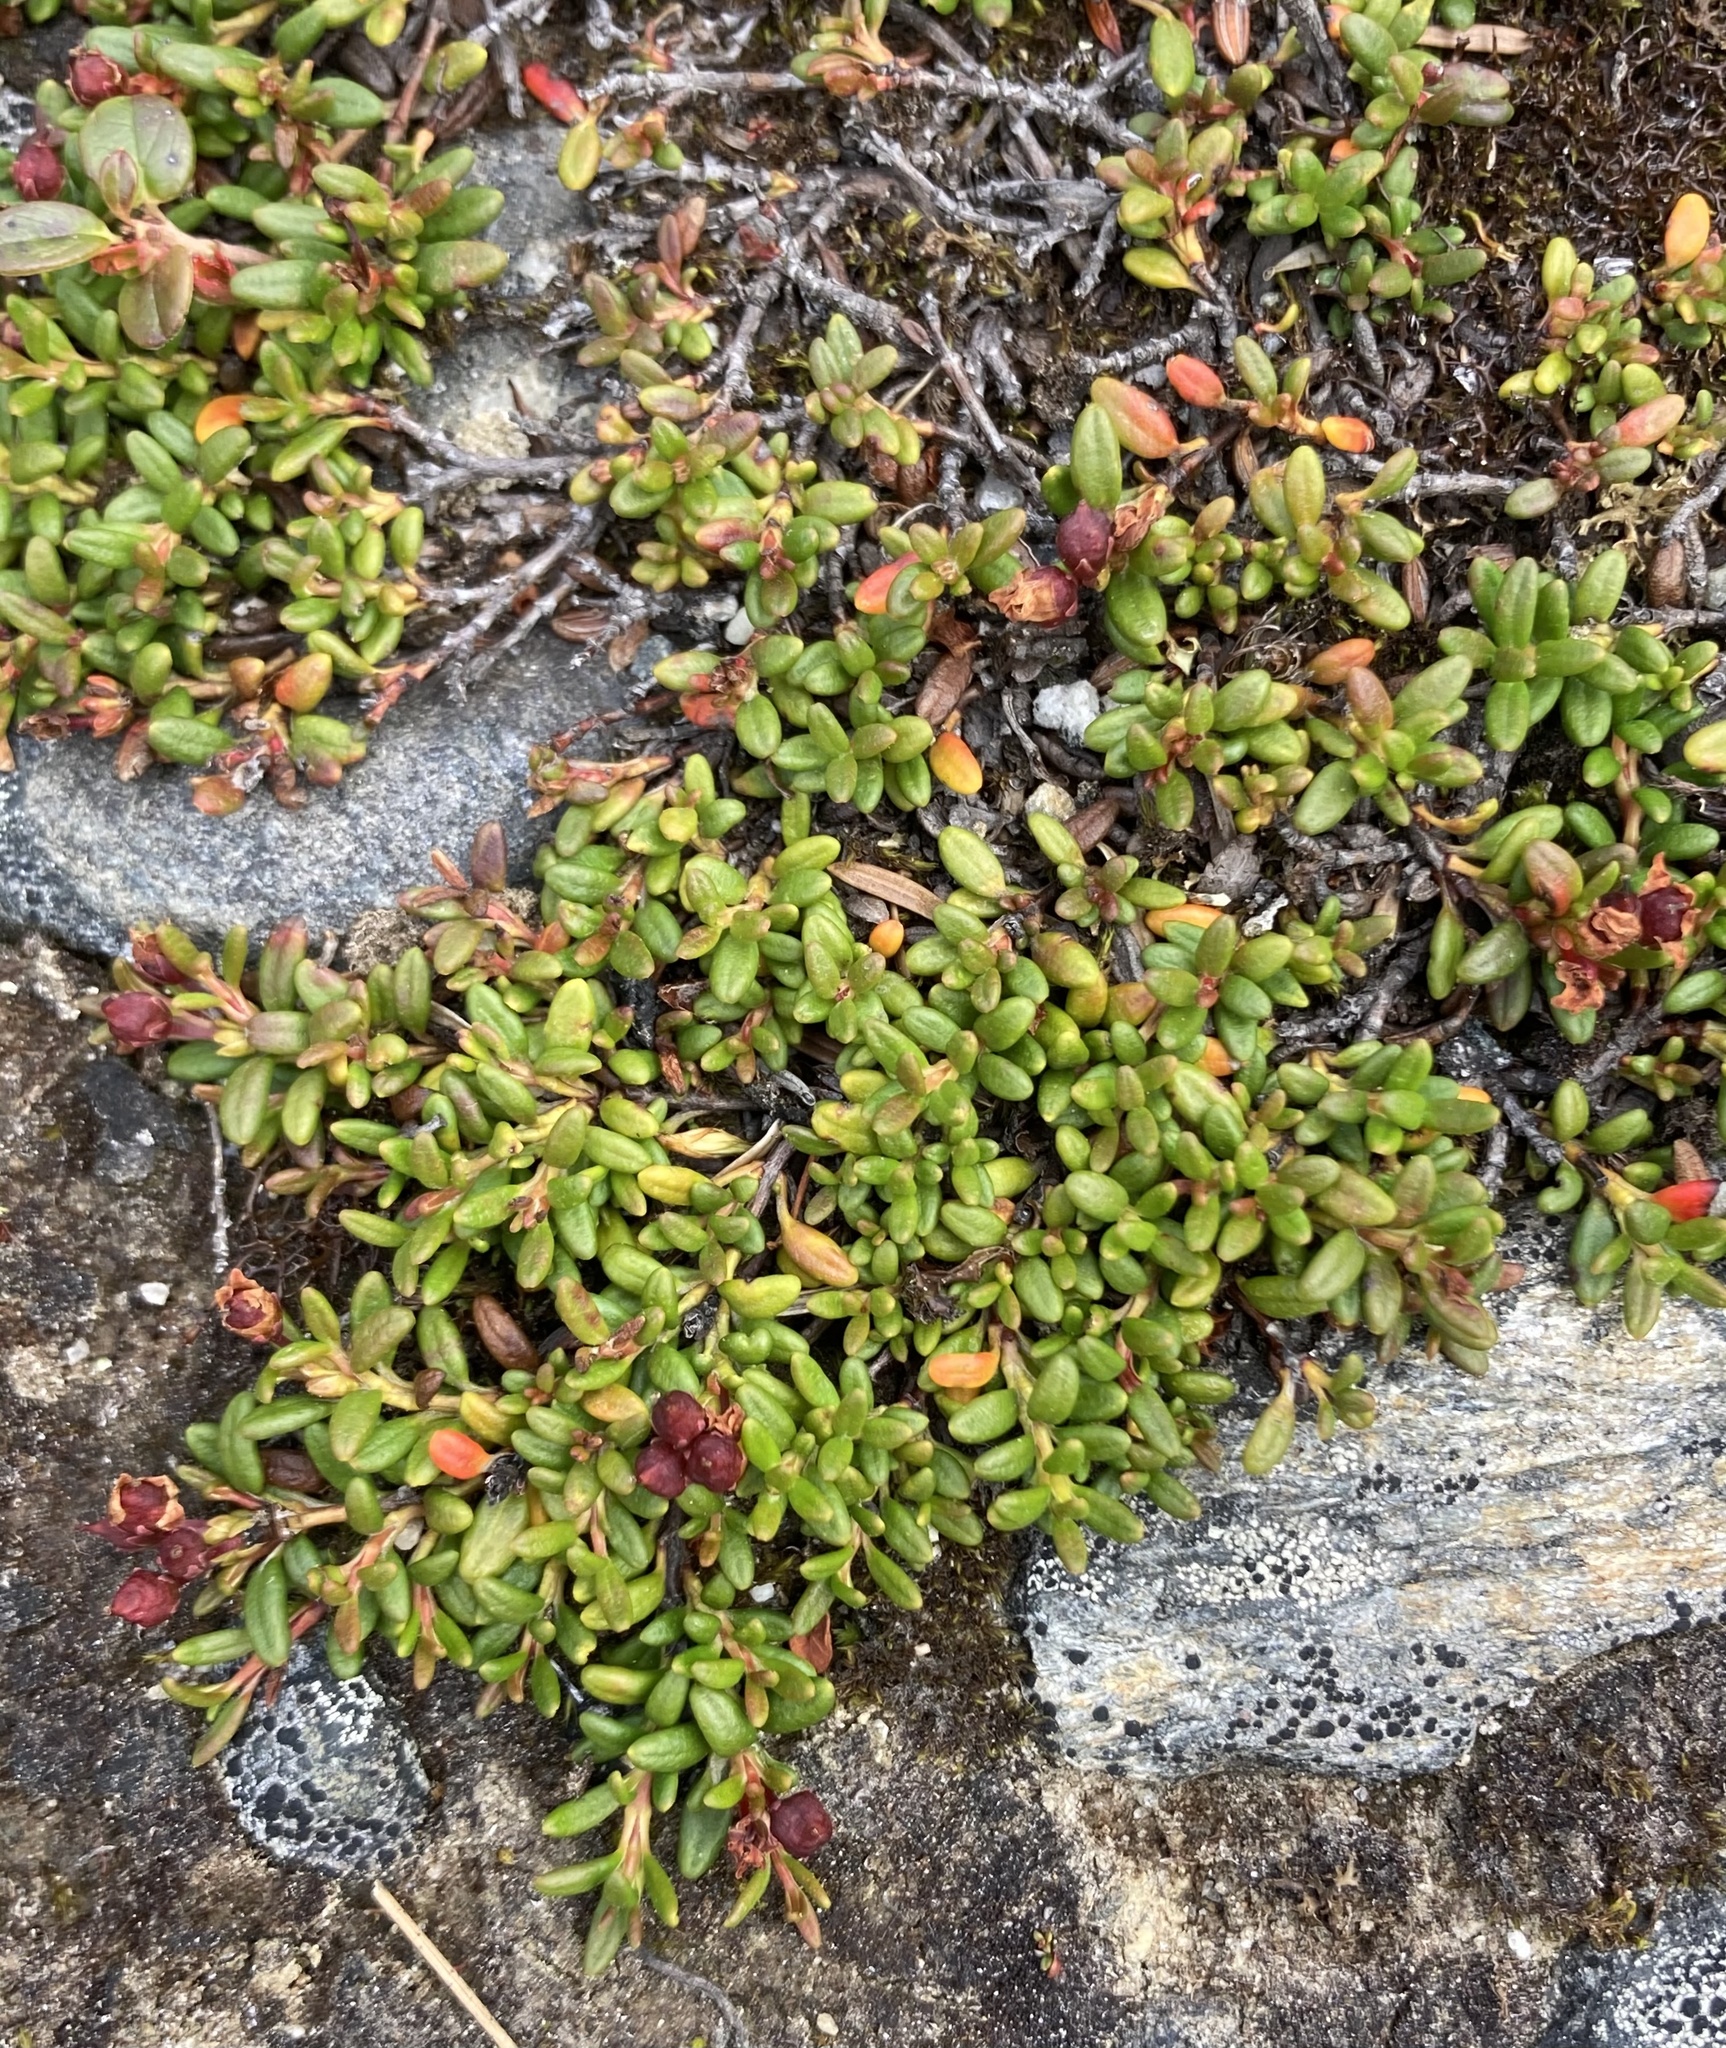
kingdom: Plantae
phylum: Tracheophyta
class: Magnoliopsida
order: Ericales
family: Ericaceae
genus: Kalmia
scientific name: Kalmia procumbens
